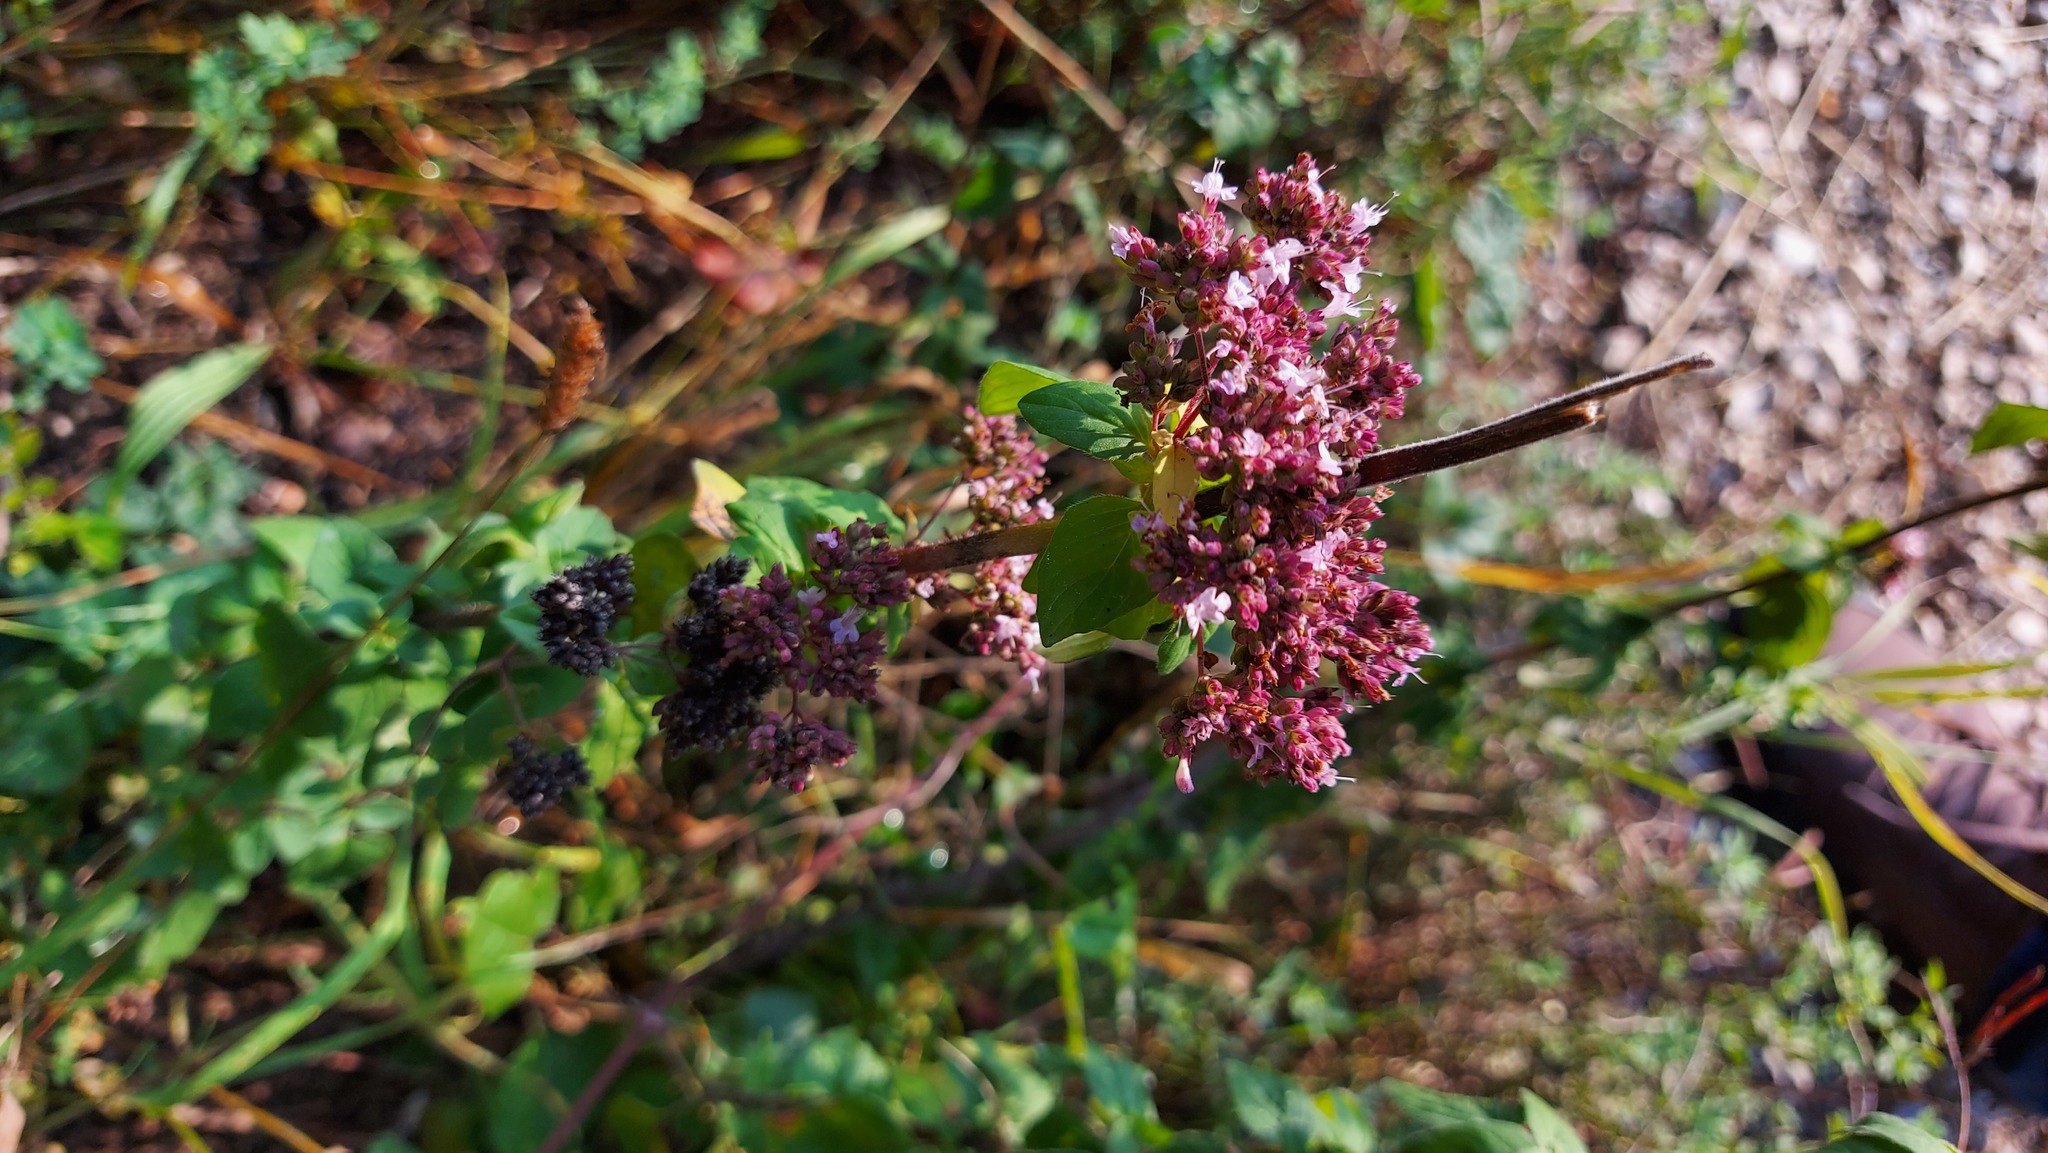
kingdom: Plantae
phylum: Tracheophyta
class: Magnoliopsida
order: Lamiales
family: Lamiaceae
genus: Origanum
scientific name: Origanum vulgare
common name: Wild marjoram
